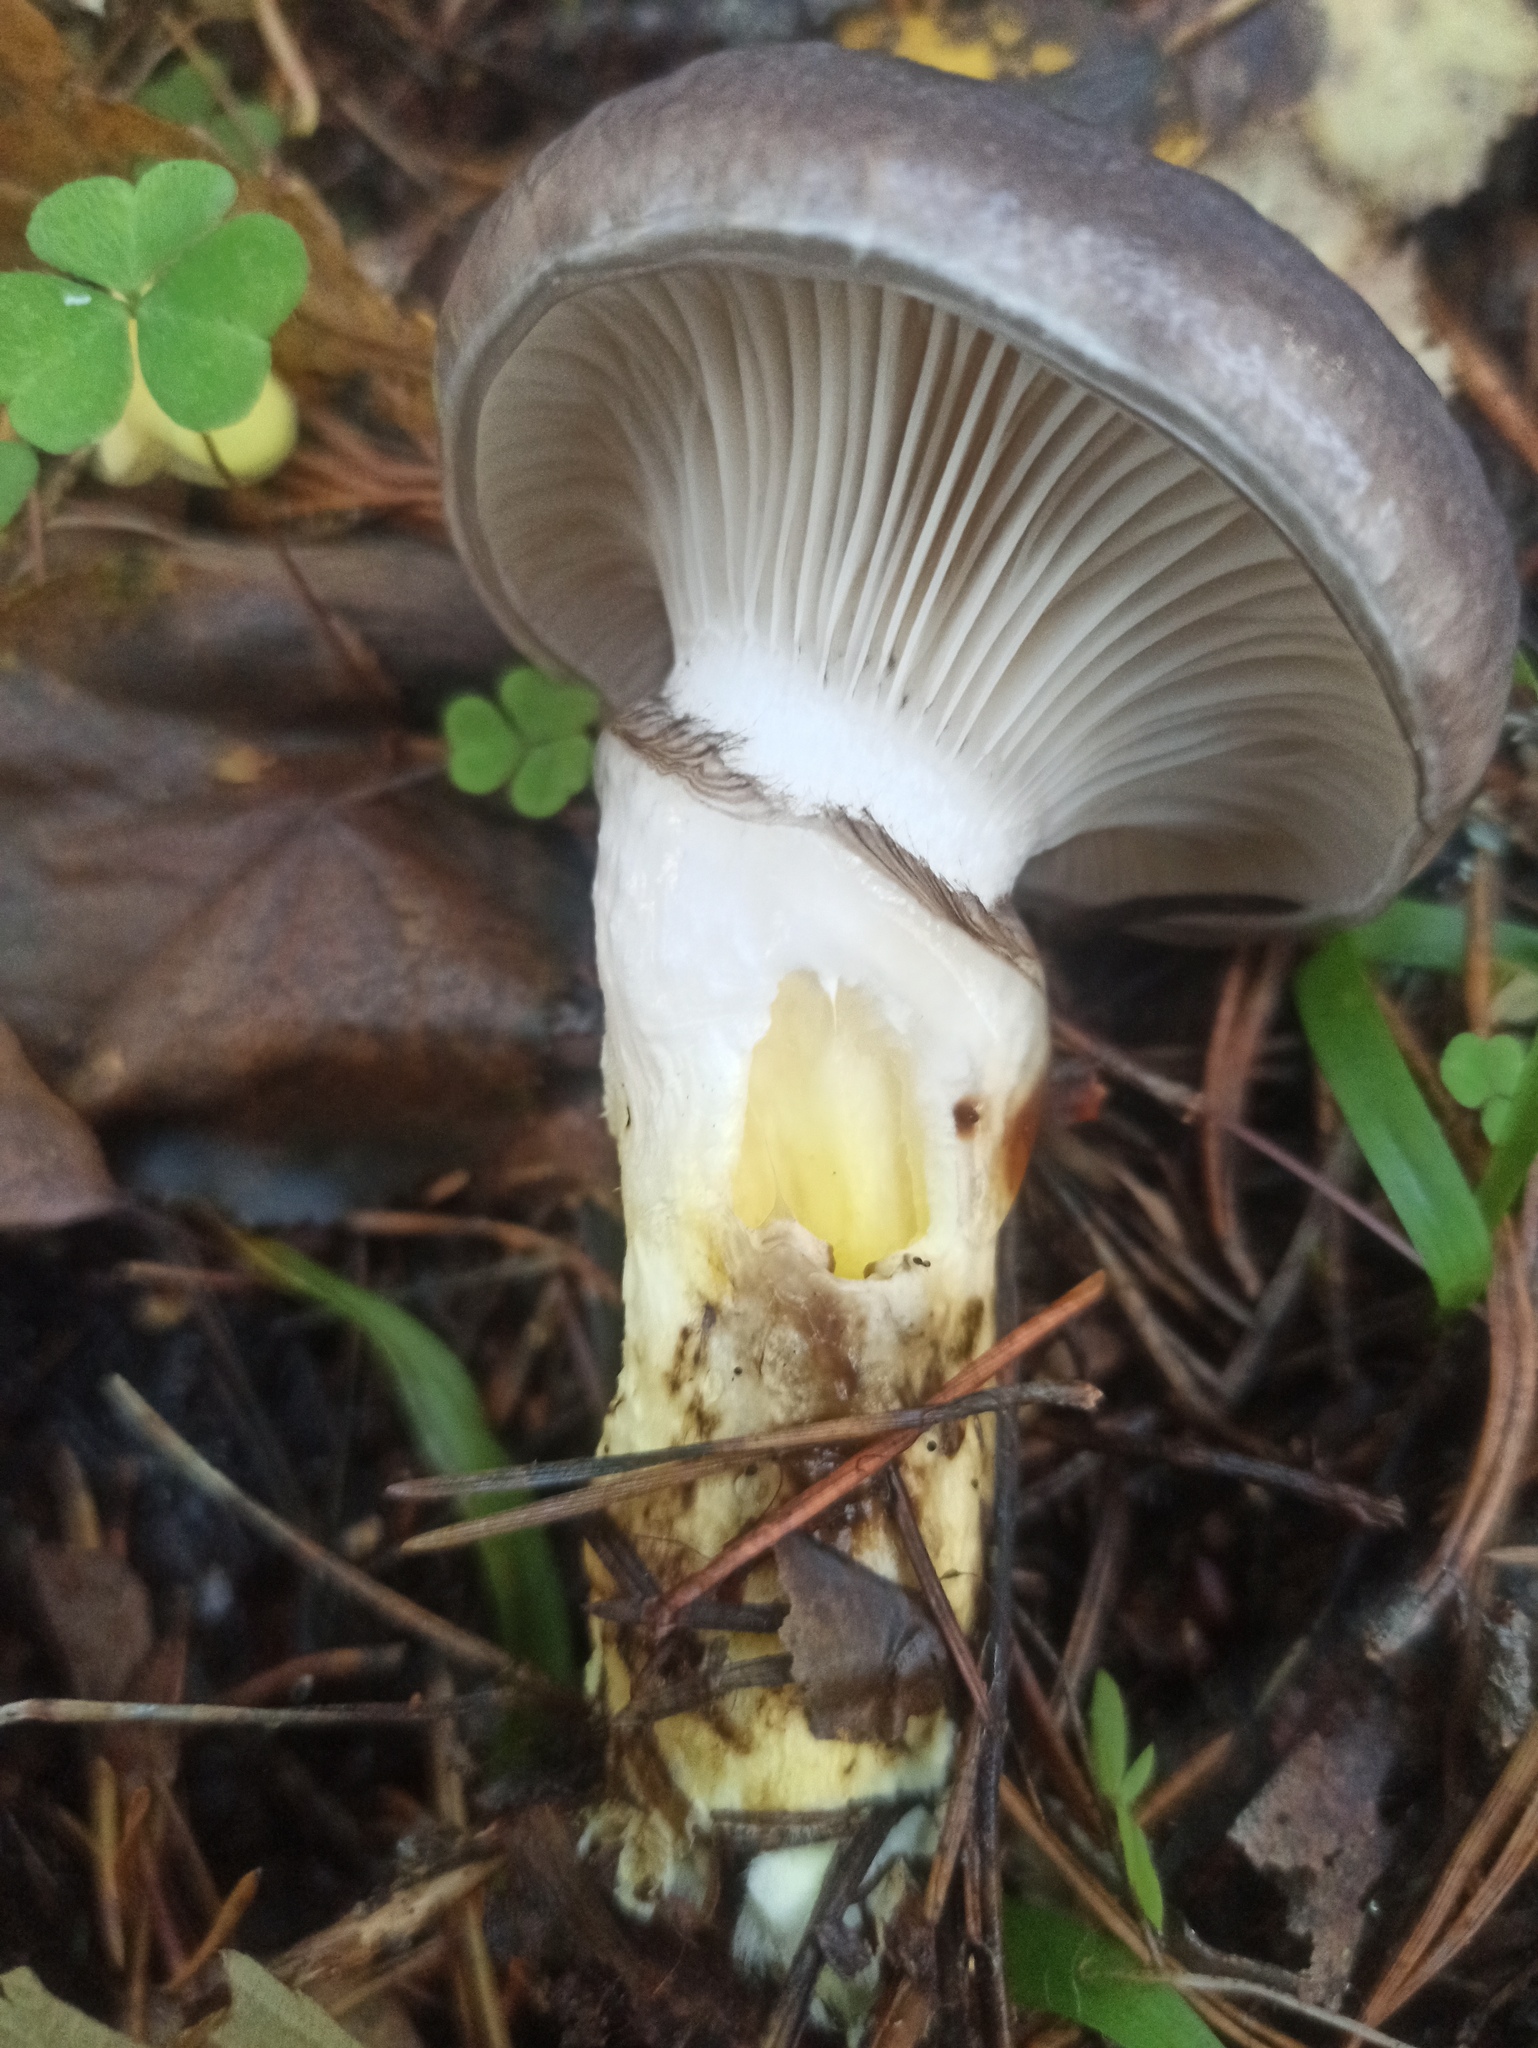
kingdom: Fungi
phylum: Basidiomycota
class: Agaricomycetes
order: Boletales
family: Gomphidiaceae
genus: Gomphidius
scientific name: Gomphidius glutinosus
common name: Slimy spike
